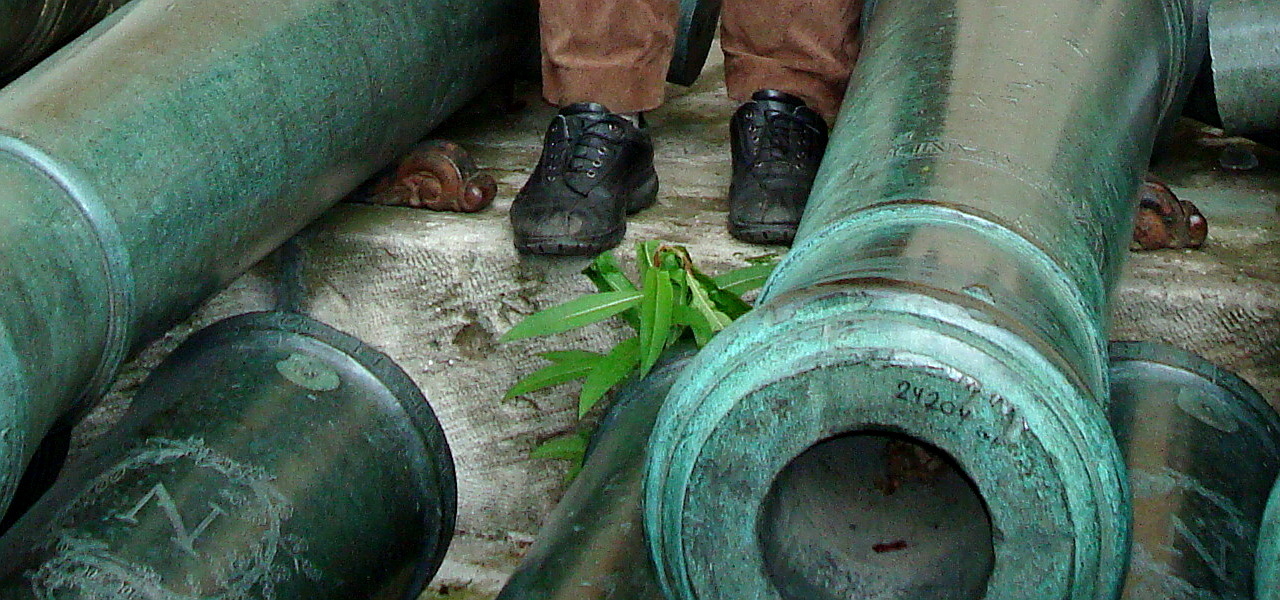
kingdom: Plantae
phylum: Tracheophyta
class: Magnoliopsida
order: Myrtales
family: Onagraceae
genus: Chamaenerion
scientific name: Chamaenerion angustifolium
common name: Fireweed
